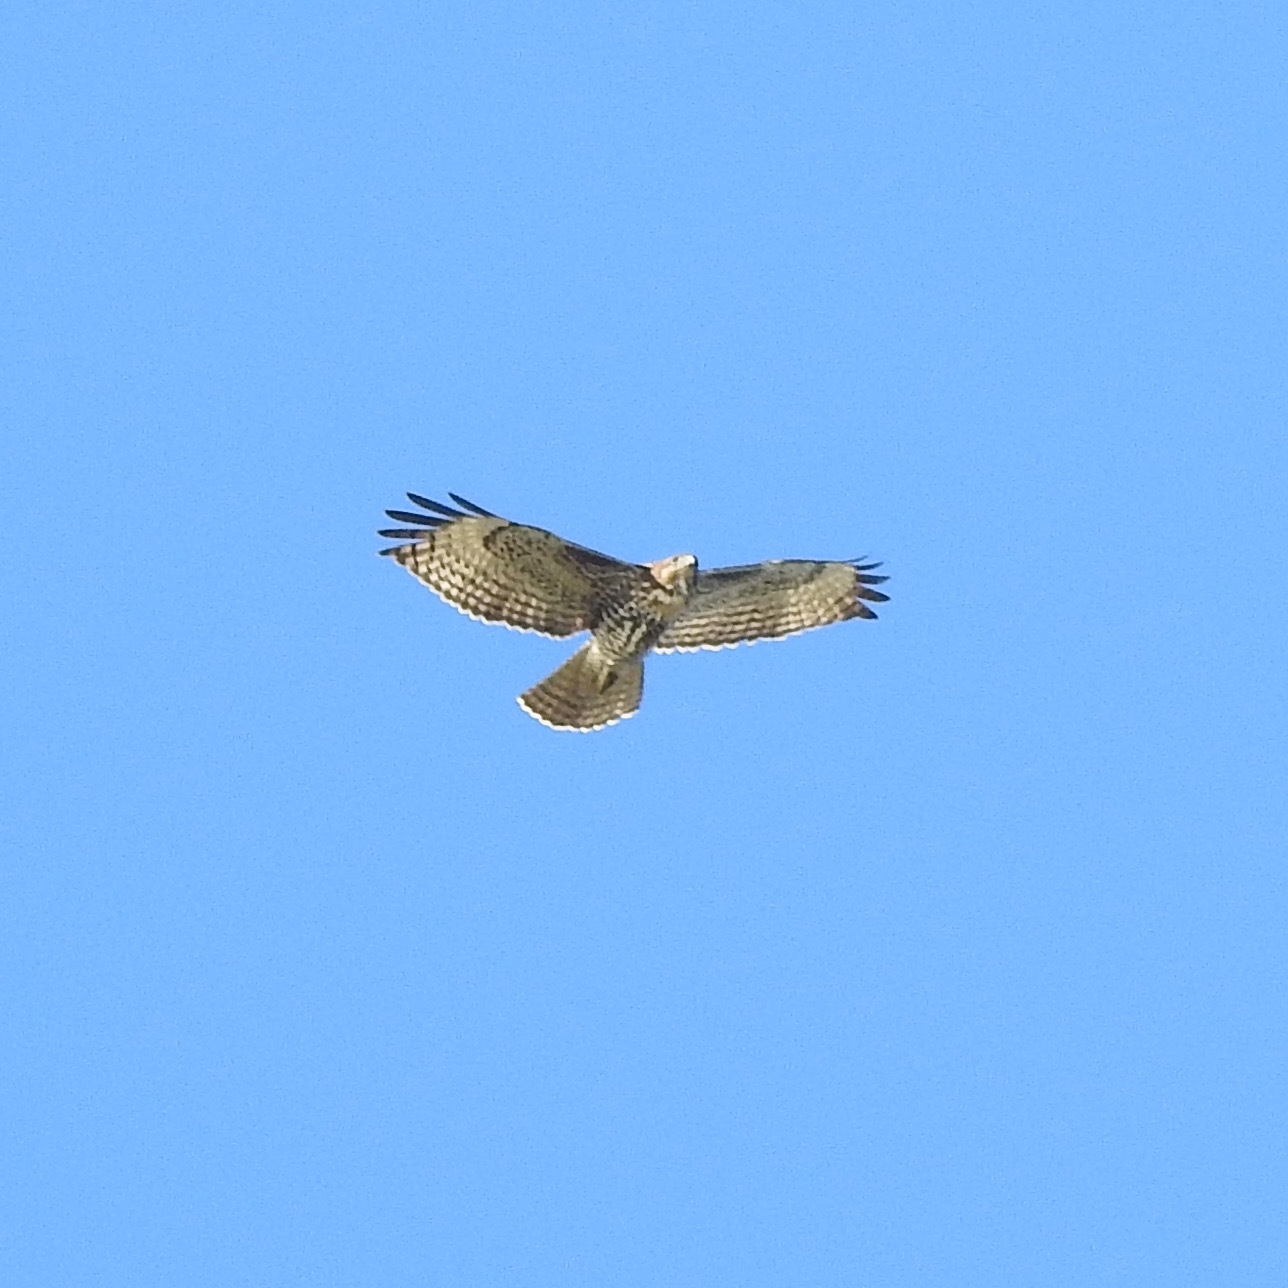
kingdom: Animalia
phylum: Chordata
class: Aves
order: Accipitriformes
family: Accipitridae
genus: Buteo
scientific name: Buteo jamaicensis
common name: Red-tailed hawk
